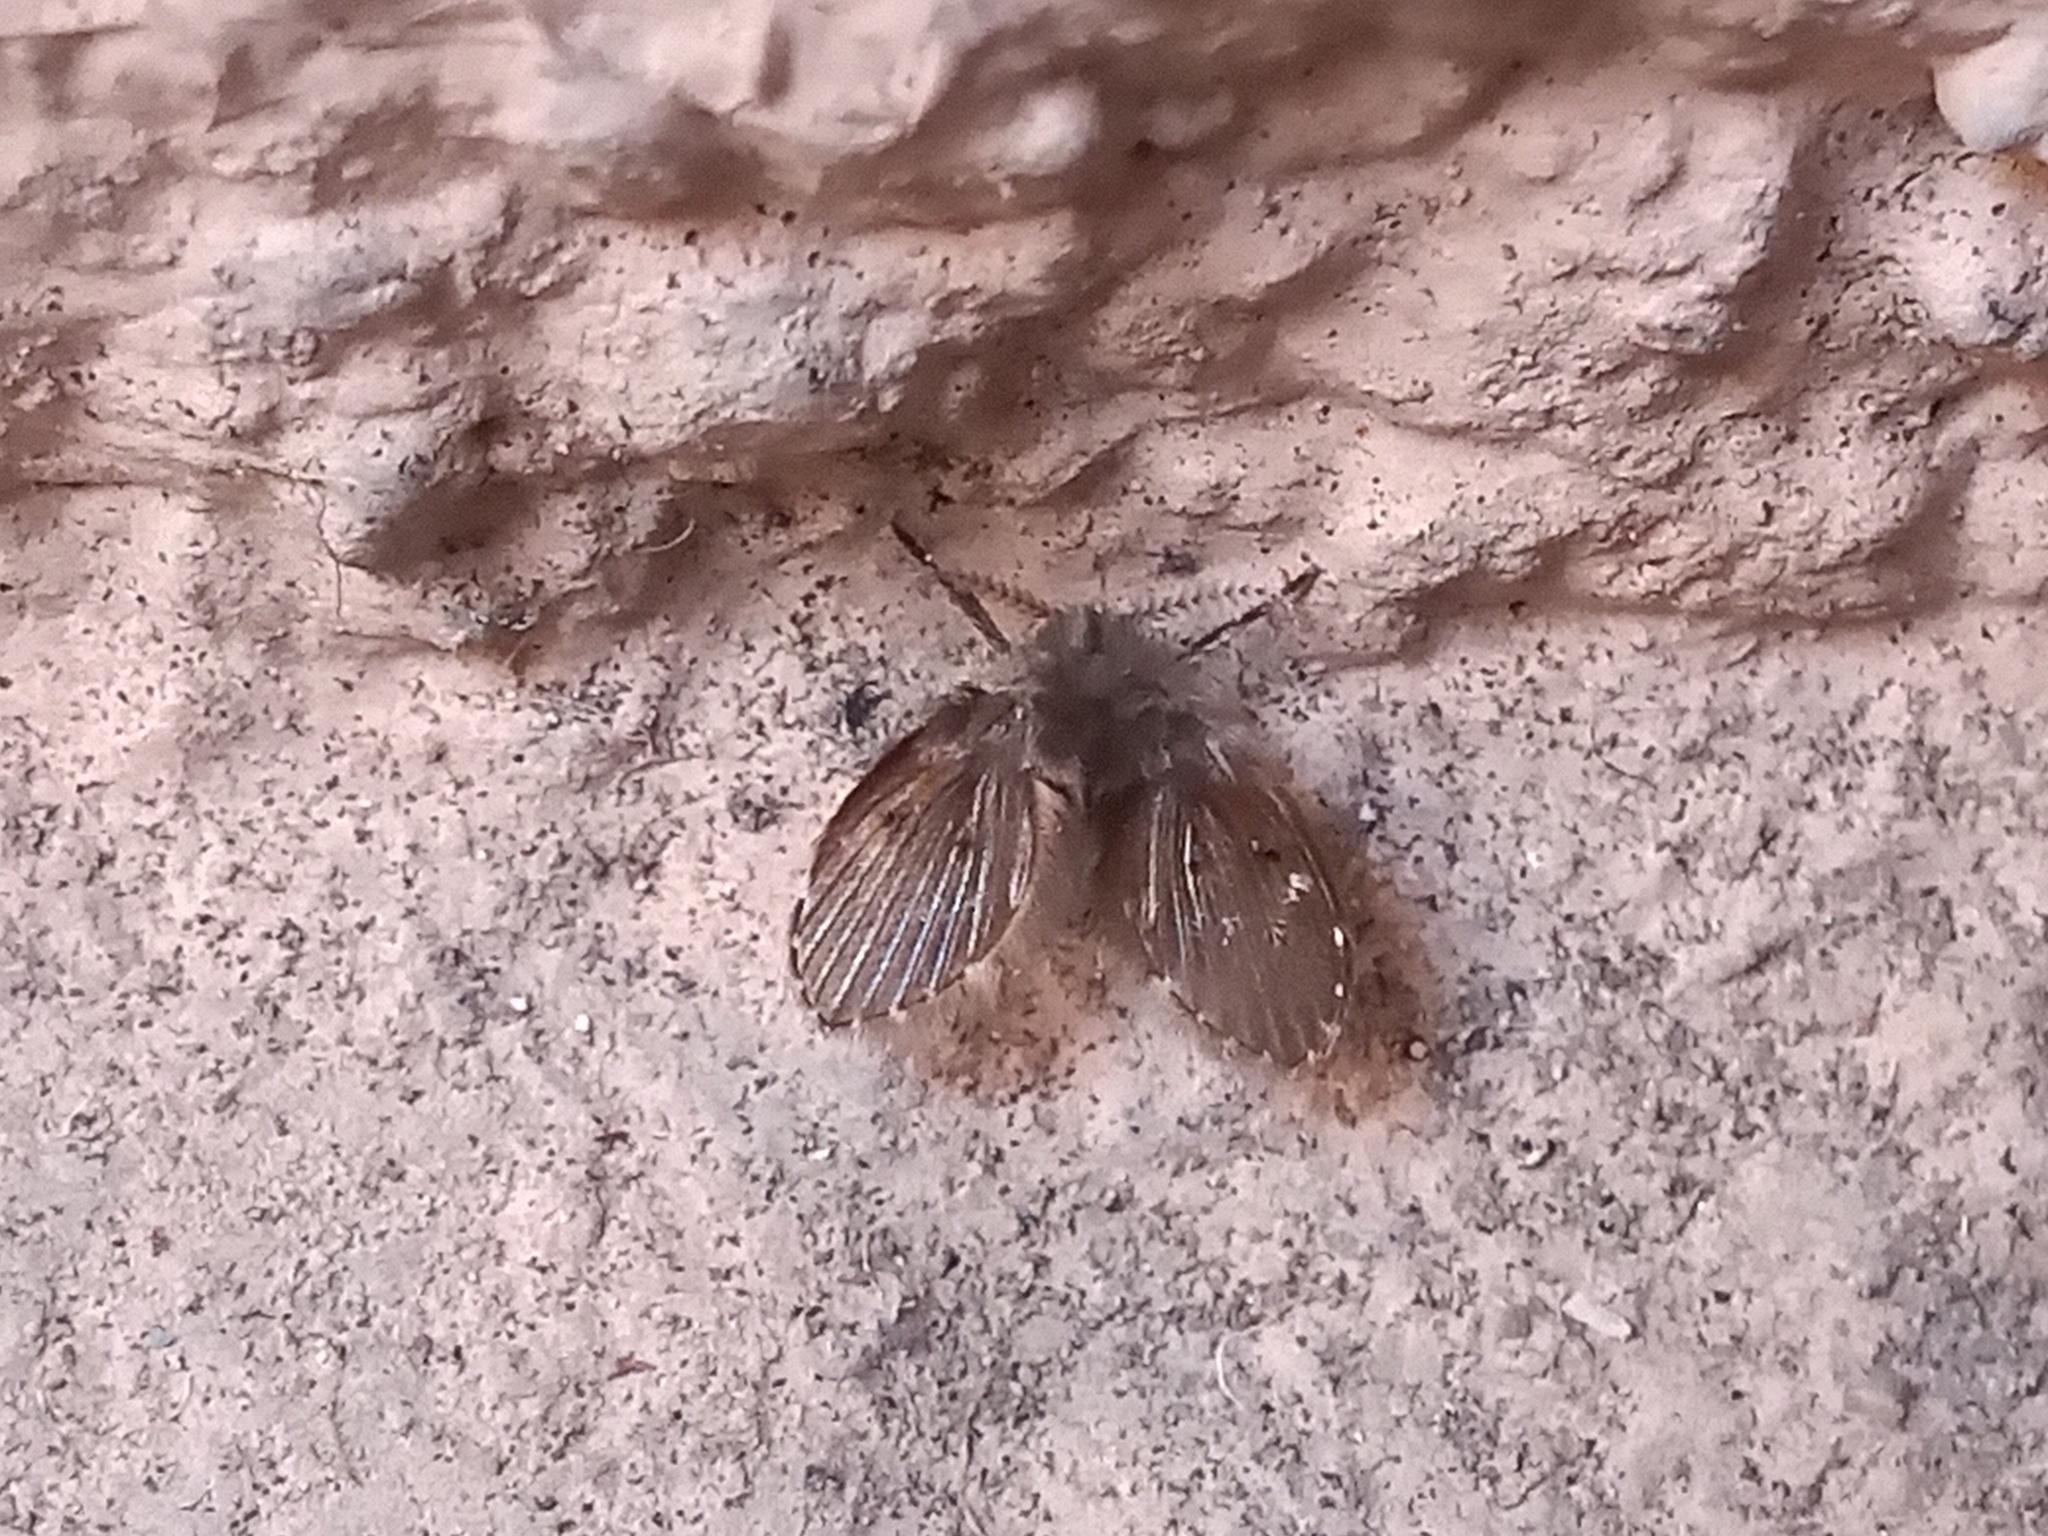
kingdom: Animalia
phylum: Arthropoda
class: Insecta
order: Diptera
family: Psychodidae
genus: Clogmia
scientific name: Clogmia albipunctatus
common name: White-spotted moth fly
